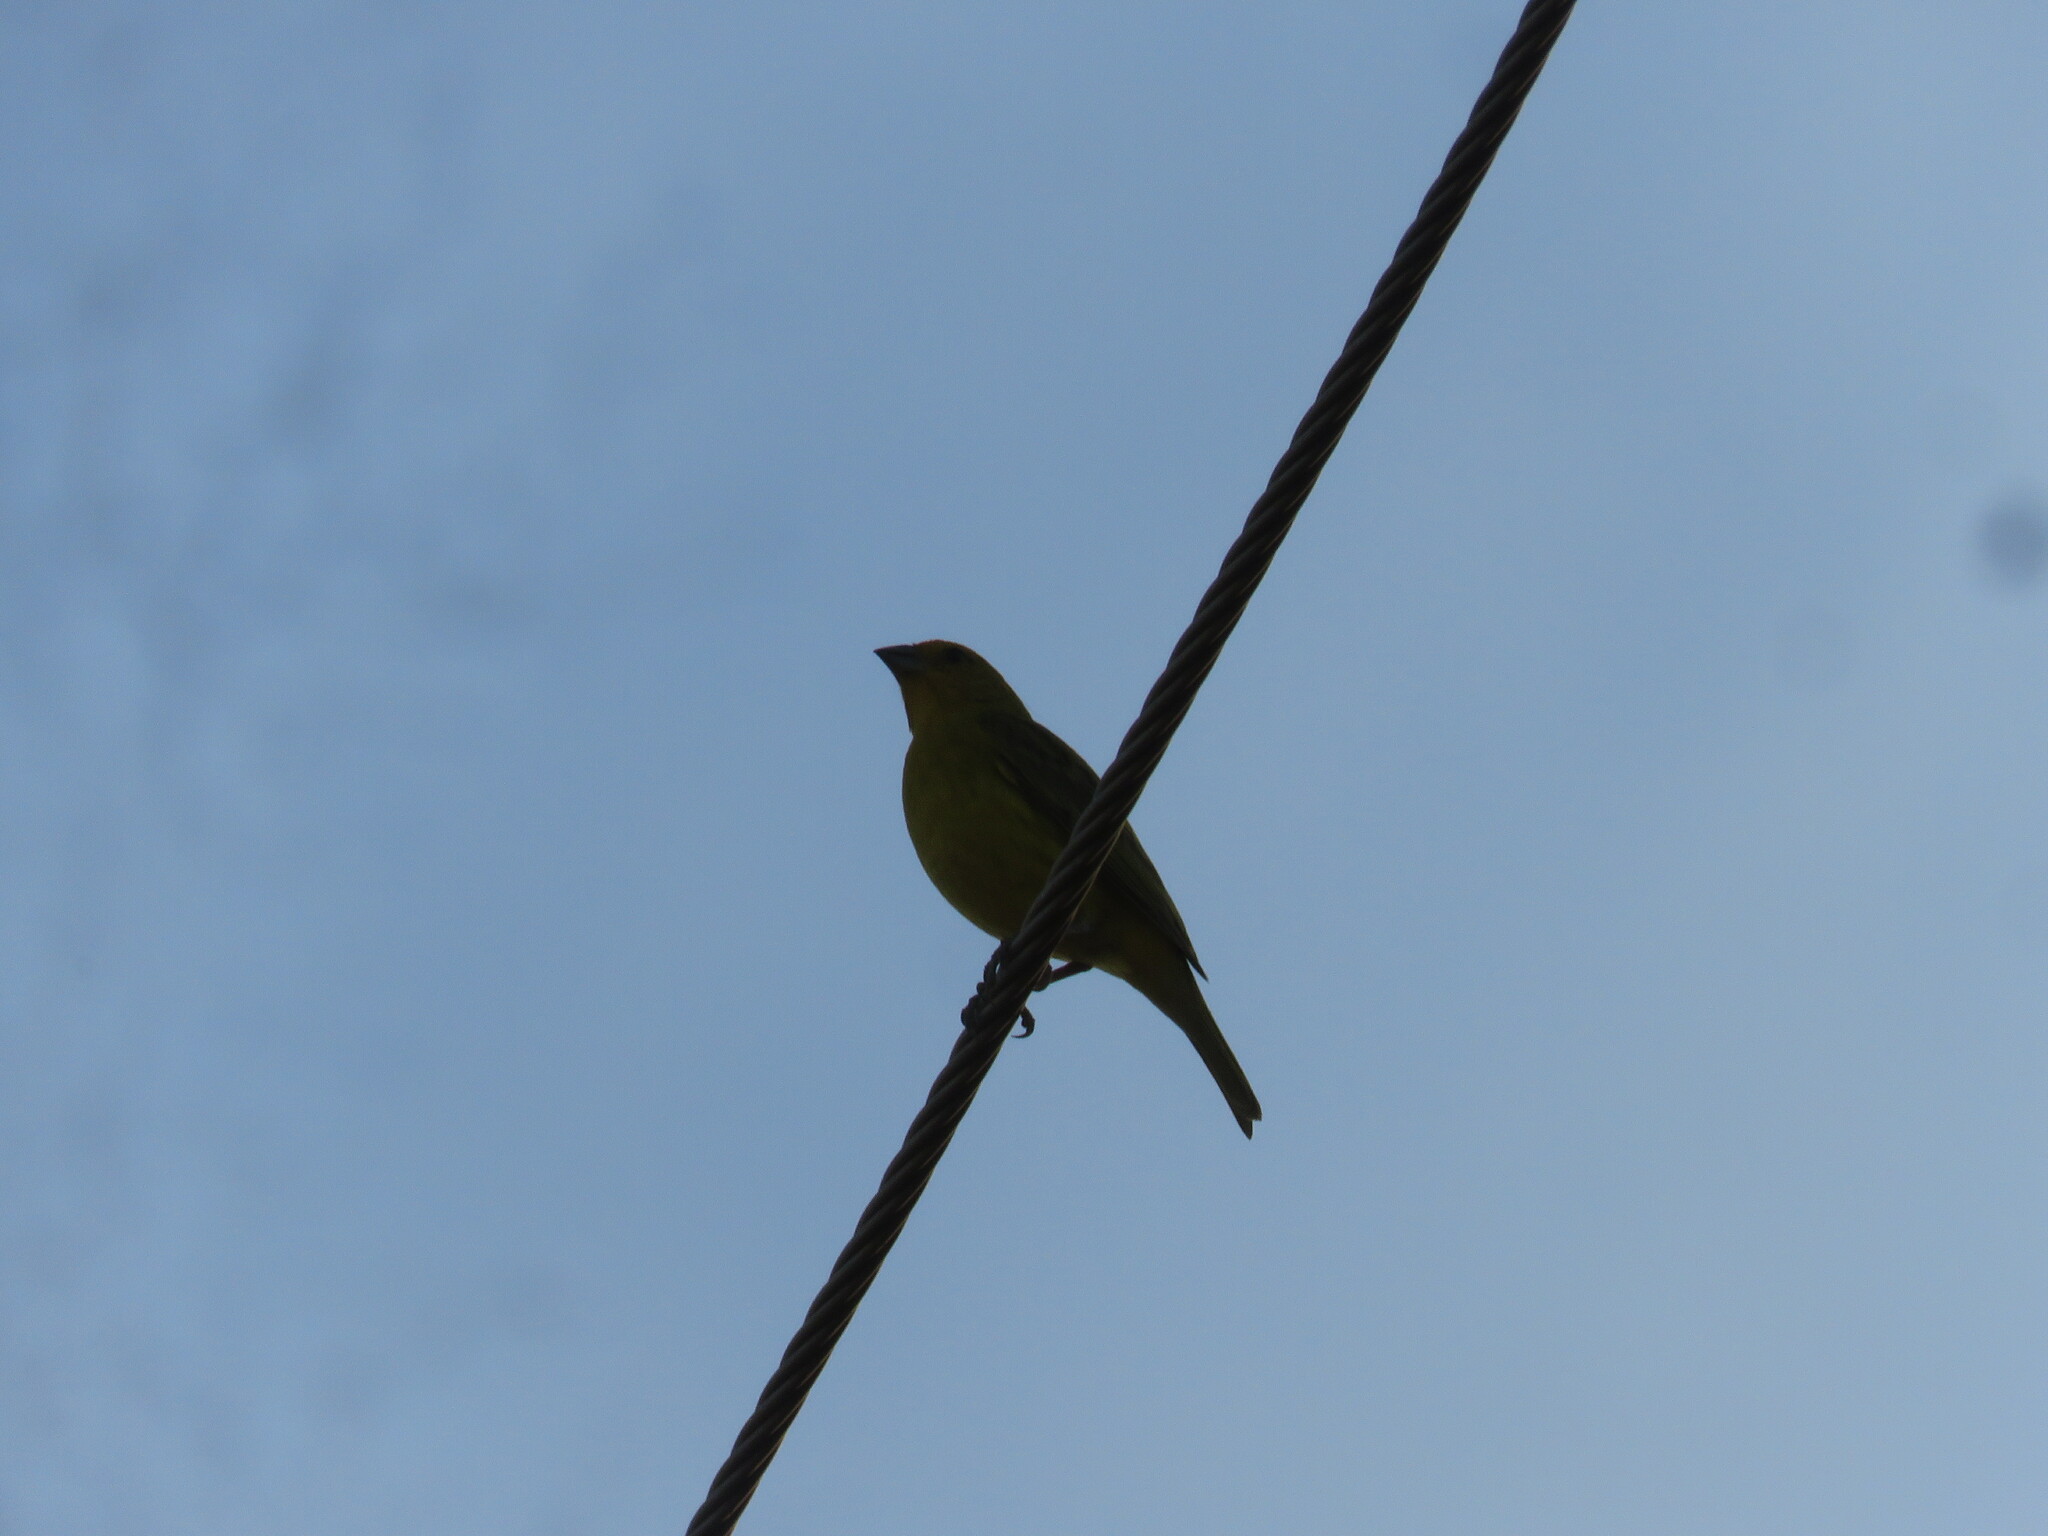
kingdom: Animalia
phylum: Chordata
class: Aves
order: Passeriformes
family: Thraupidae
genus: Sicalis
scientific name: Sicalis flaveola
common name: Saffron finch
